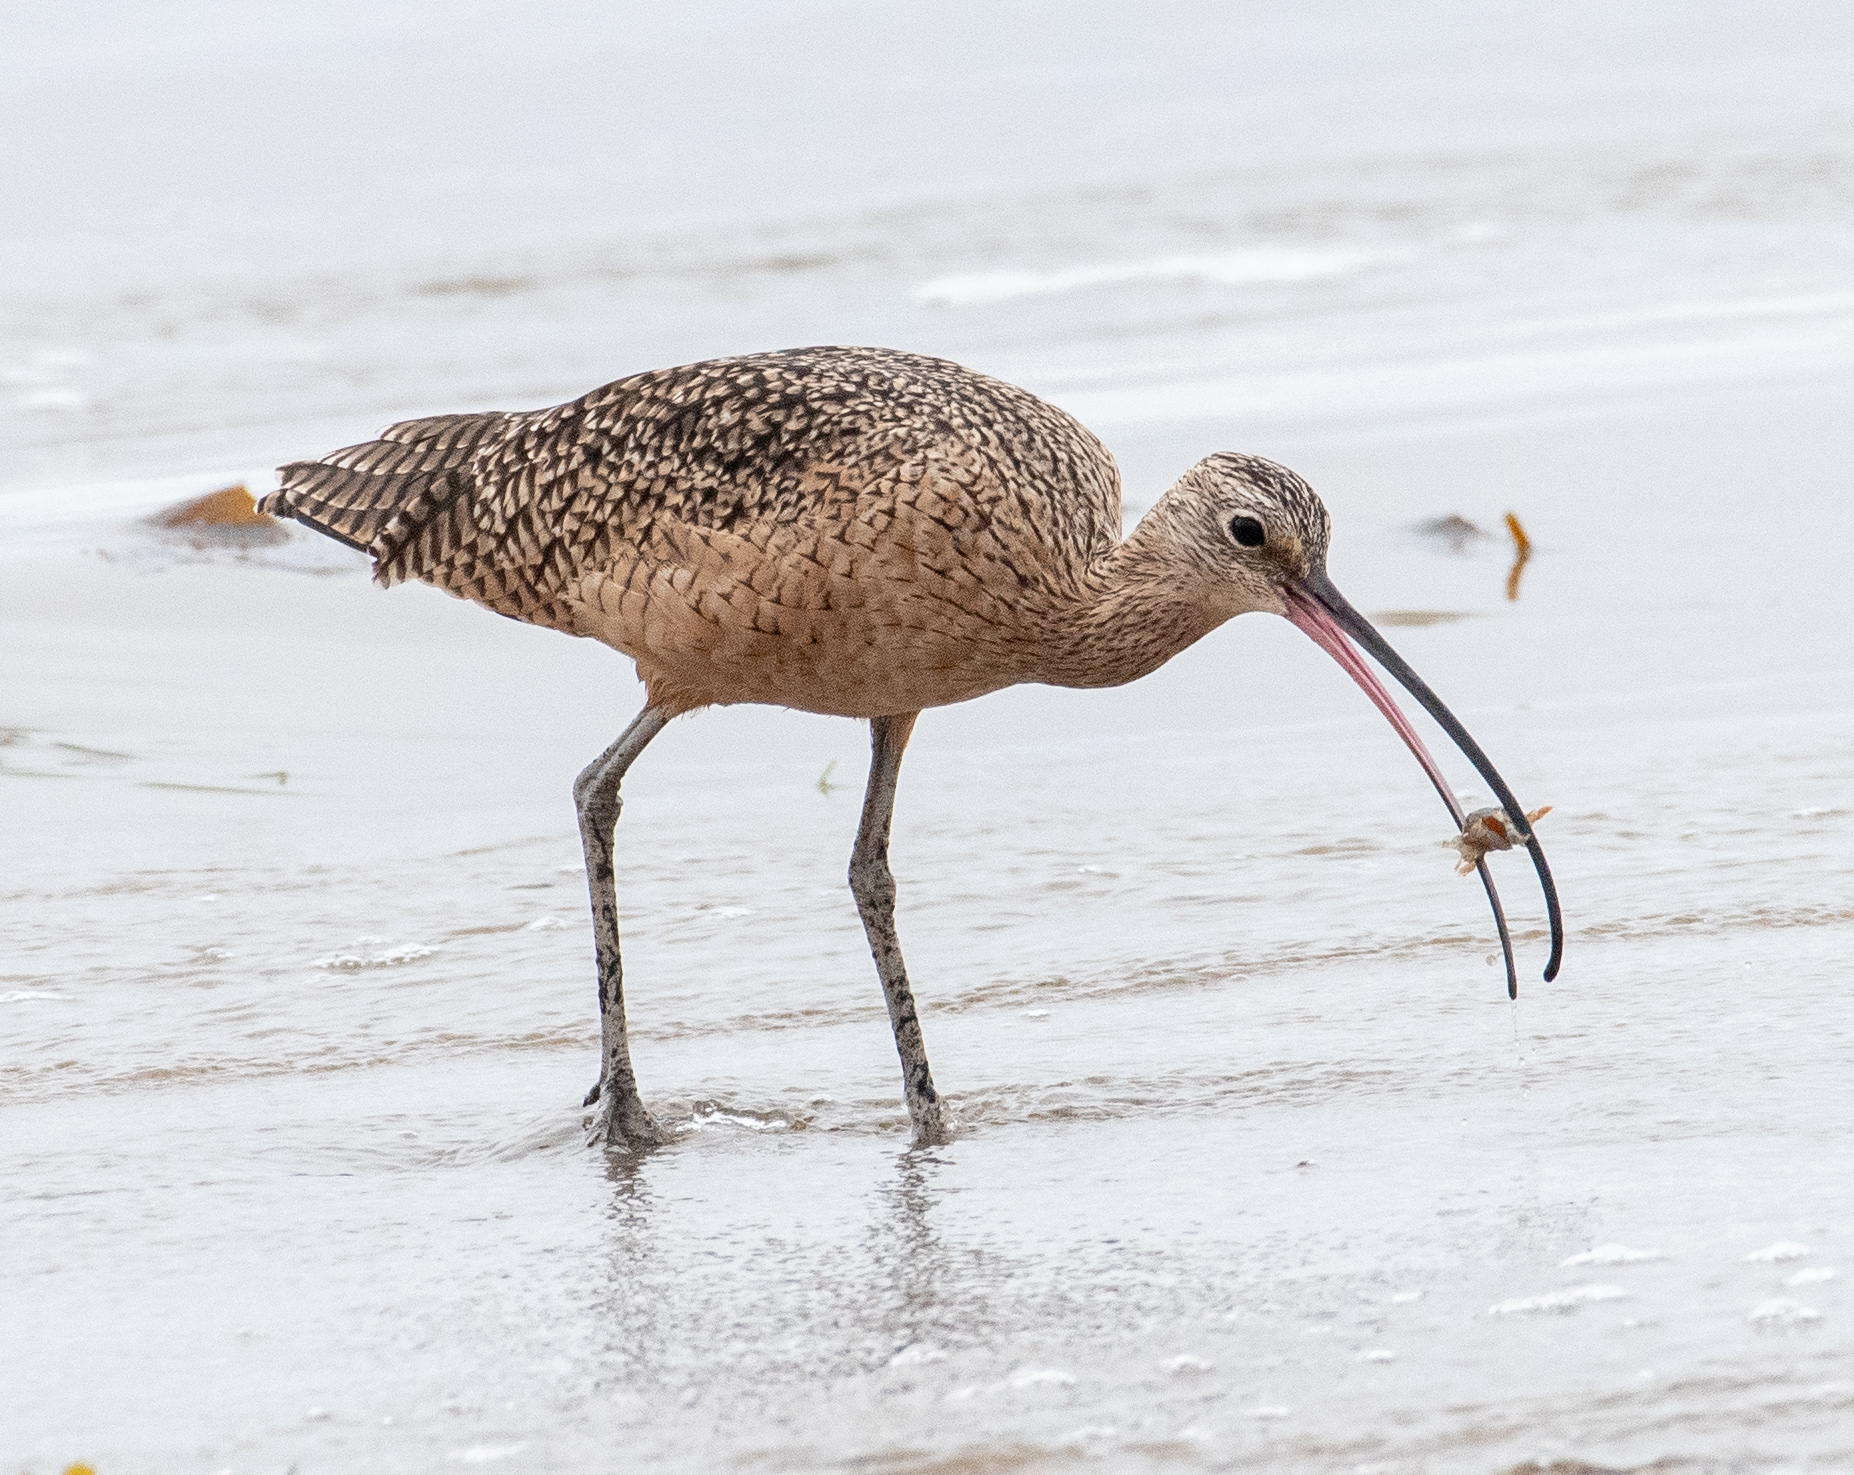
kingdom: Animalia
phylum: Chordata
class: Aves
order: Charadriiformes
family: Scolopacidae
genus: Numenius
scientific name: Numenius americanus
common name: Long-billed curlew
